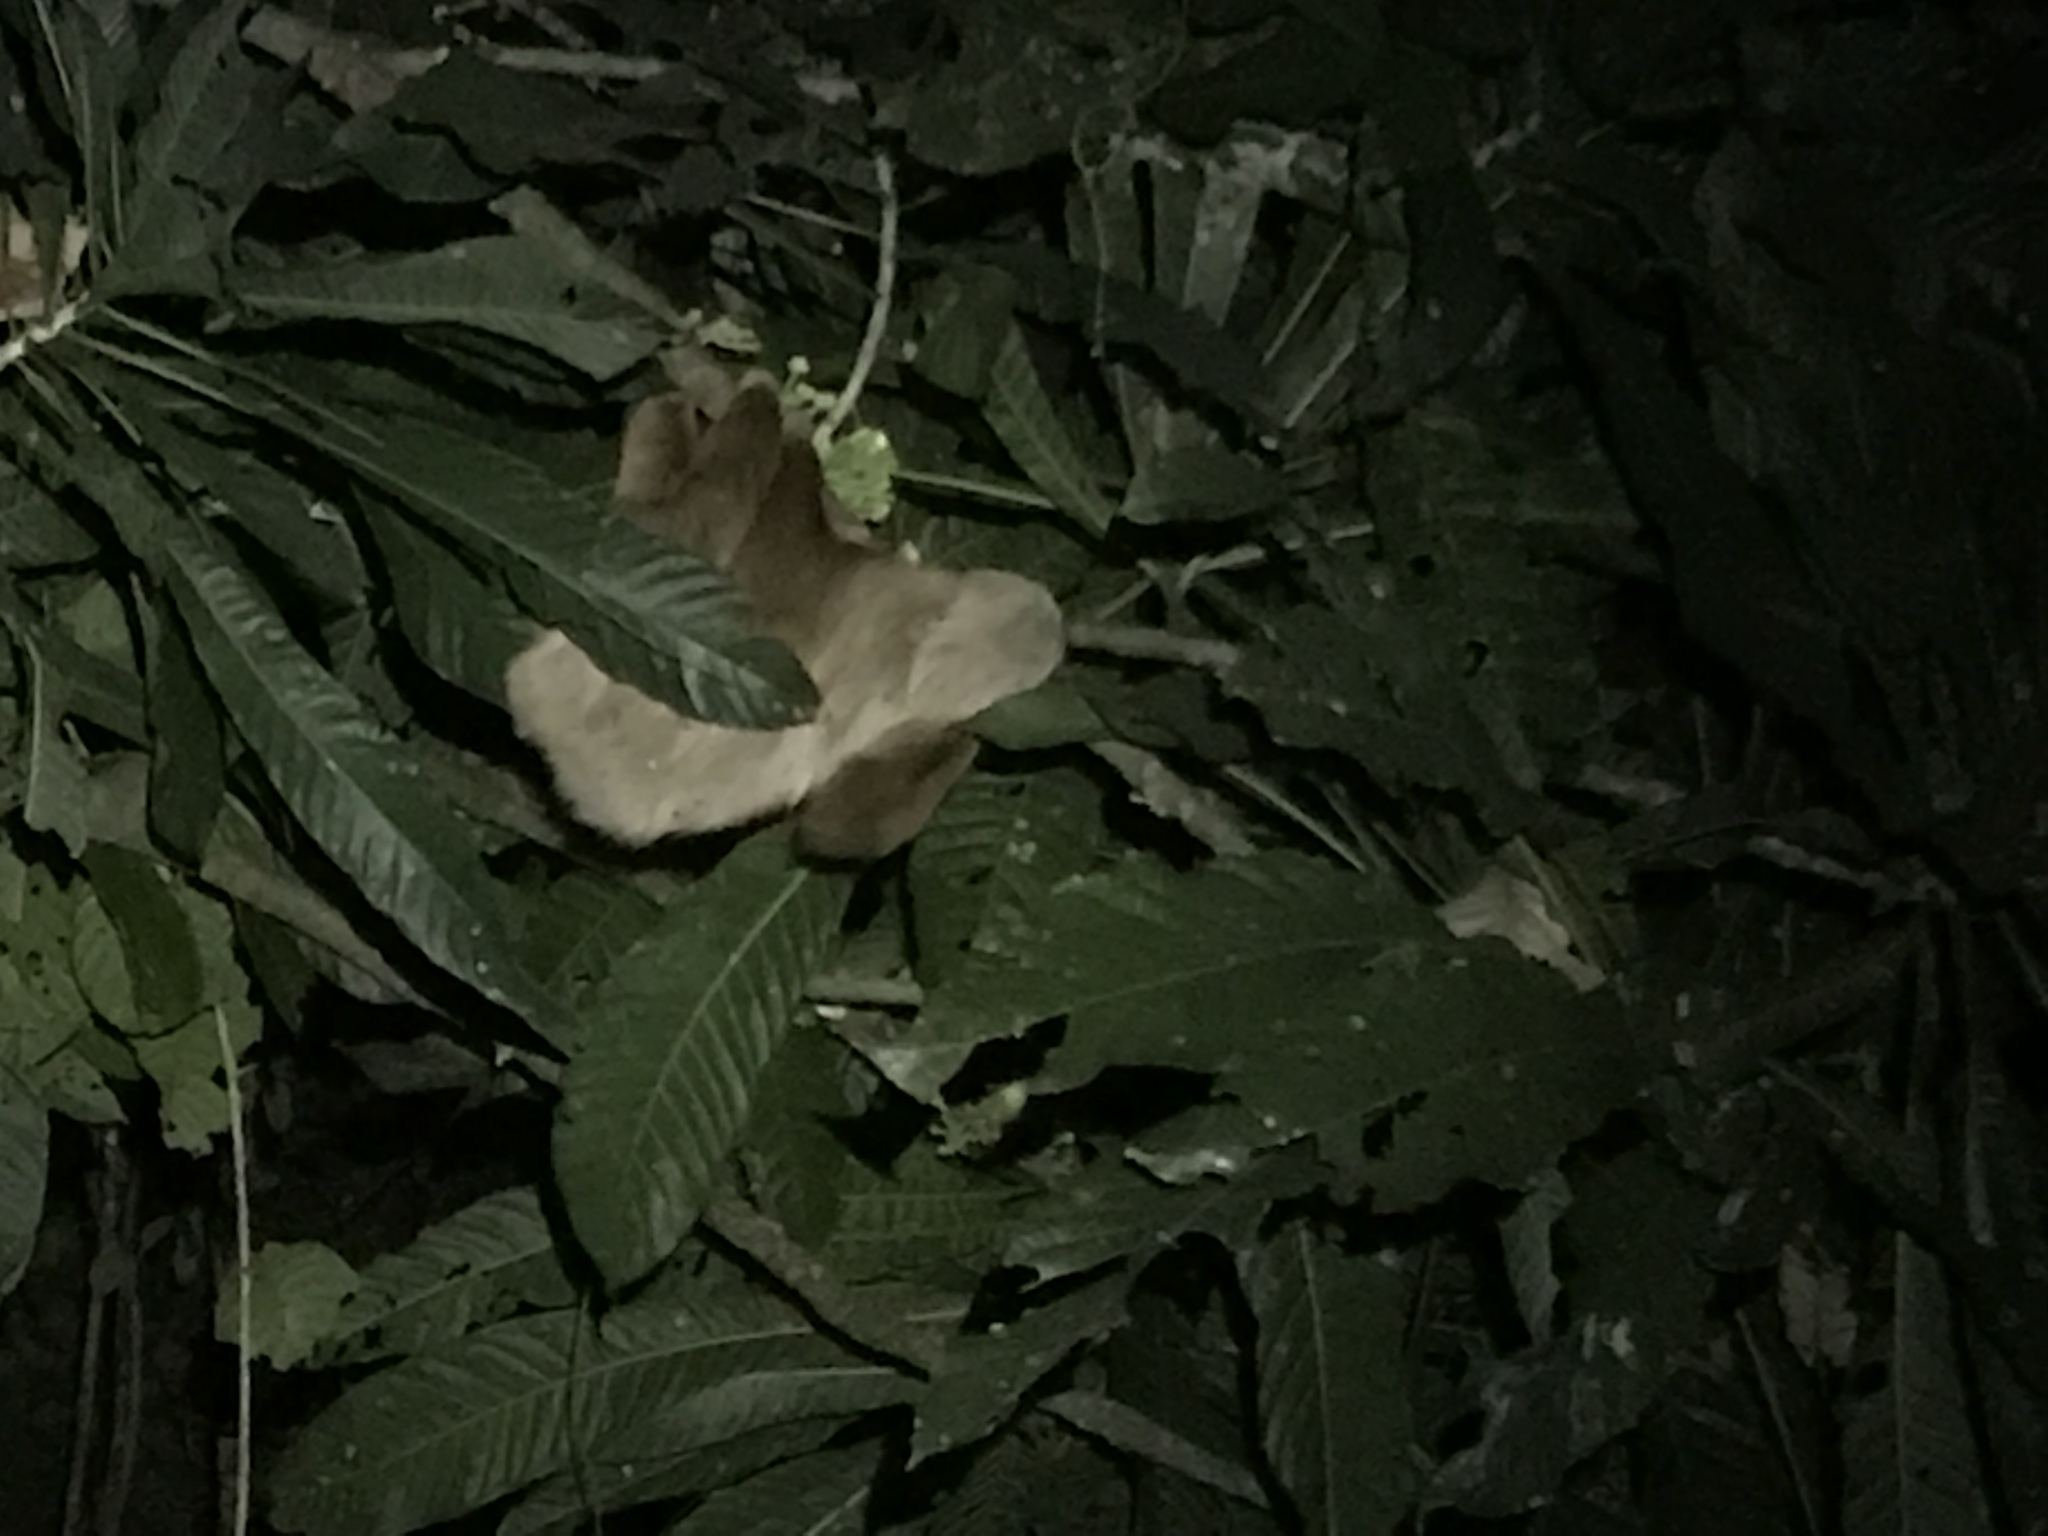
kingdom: Animalia
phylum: Chordata
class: Mammalia
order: Pilosa
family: Megalonychidae
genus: Choloepus
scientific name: Choloepus hoffmanni
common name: Hoffmann's two-toed sloth
